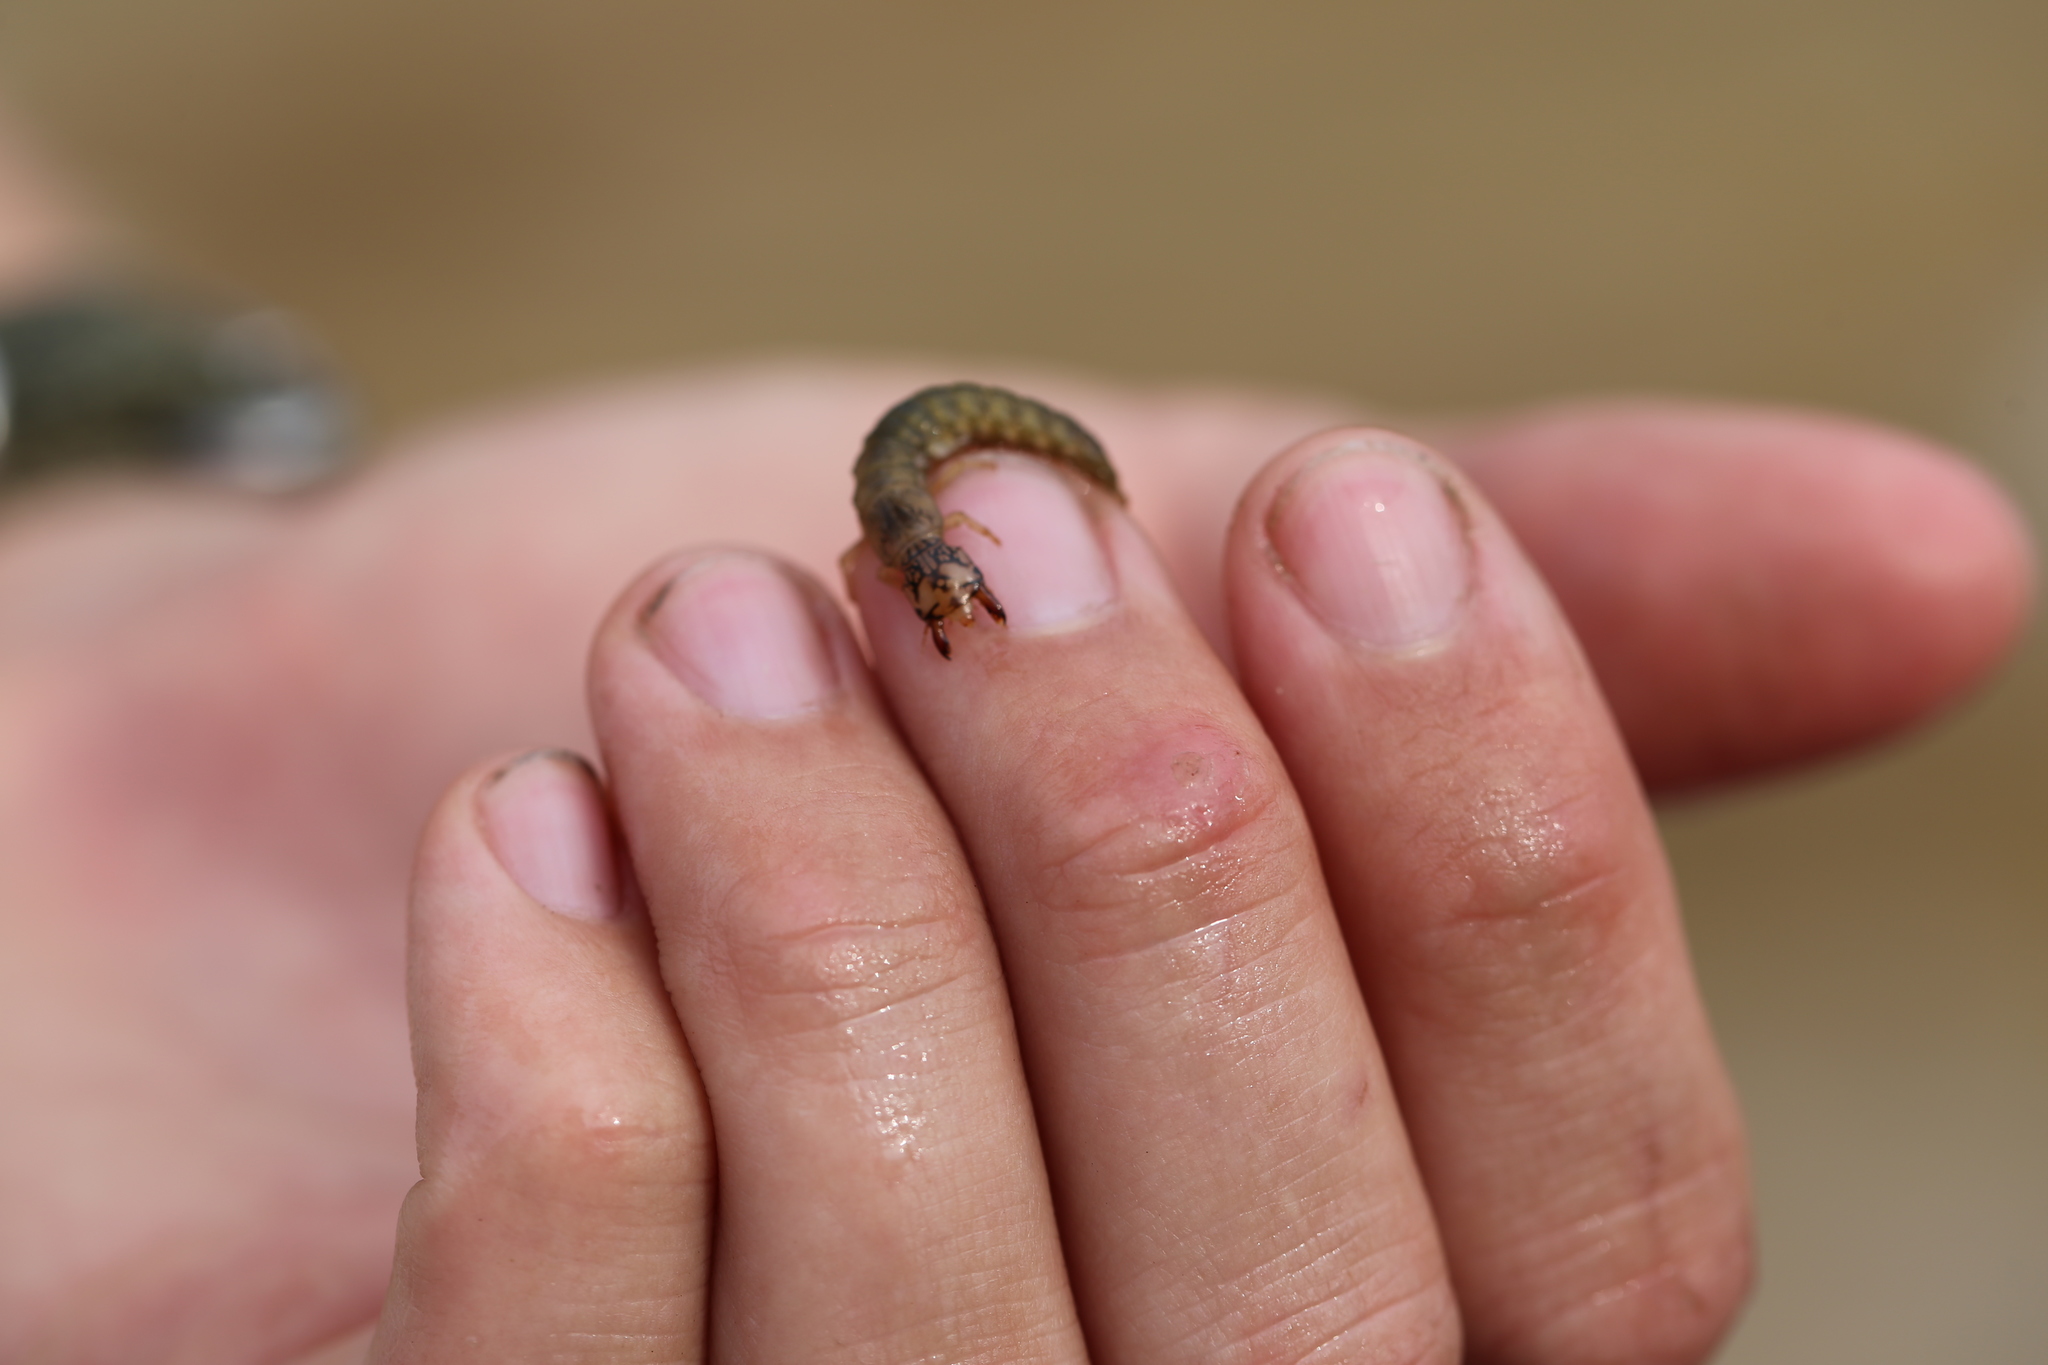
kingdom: Animalia
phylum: Arthropoda
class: Insecta
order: Megaloptera
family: Corydalidae
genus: Corydalus
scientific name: Corydalus cornutus
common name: Dobsonfly
